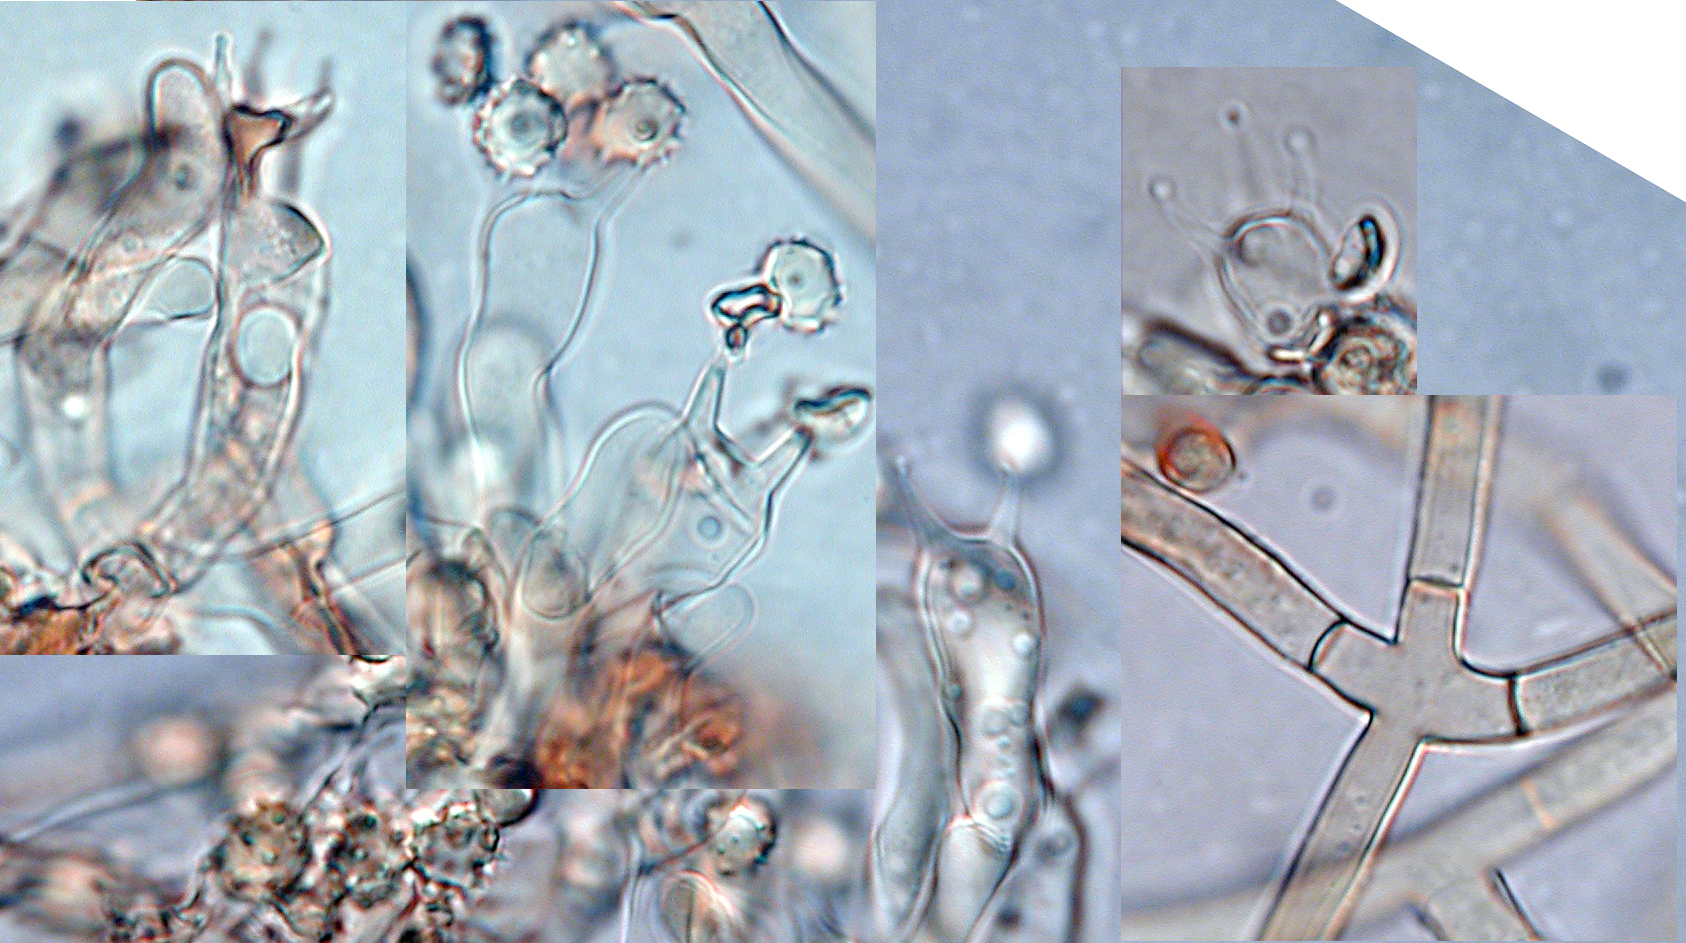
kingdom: Fungi
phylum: Basidiomycota
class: Agaricomycetes
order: Thelephorales
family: Thelephoraceae
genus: Tomentellopsis
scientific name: Tomentellopsis zygodesmoides
